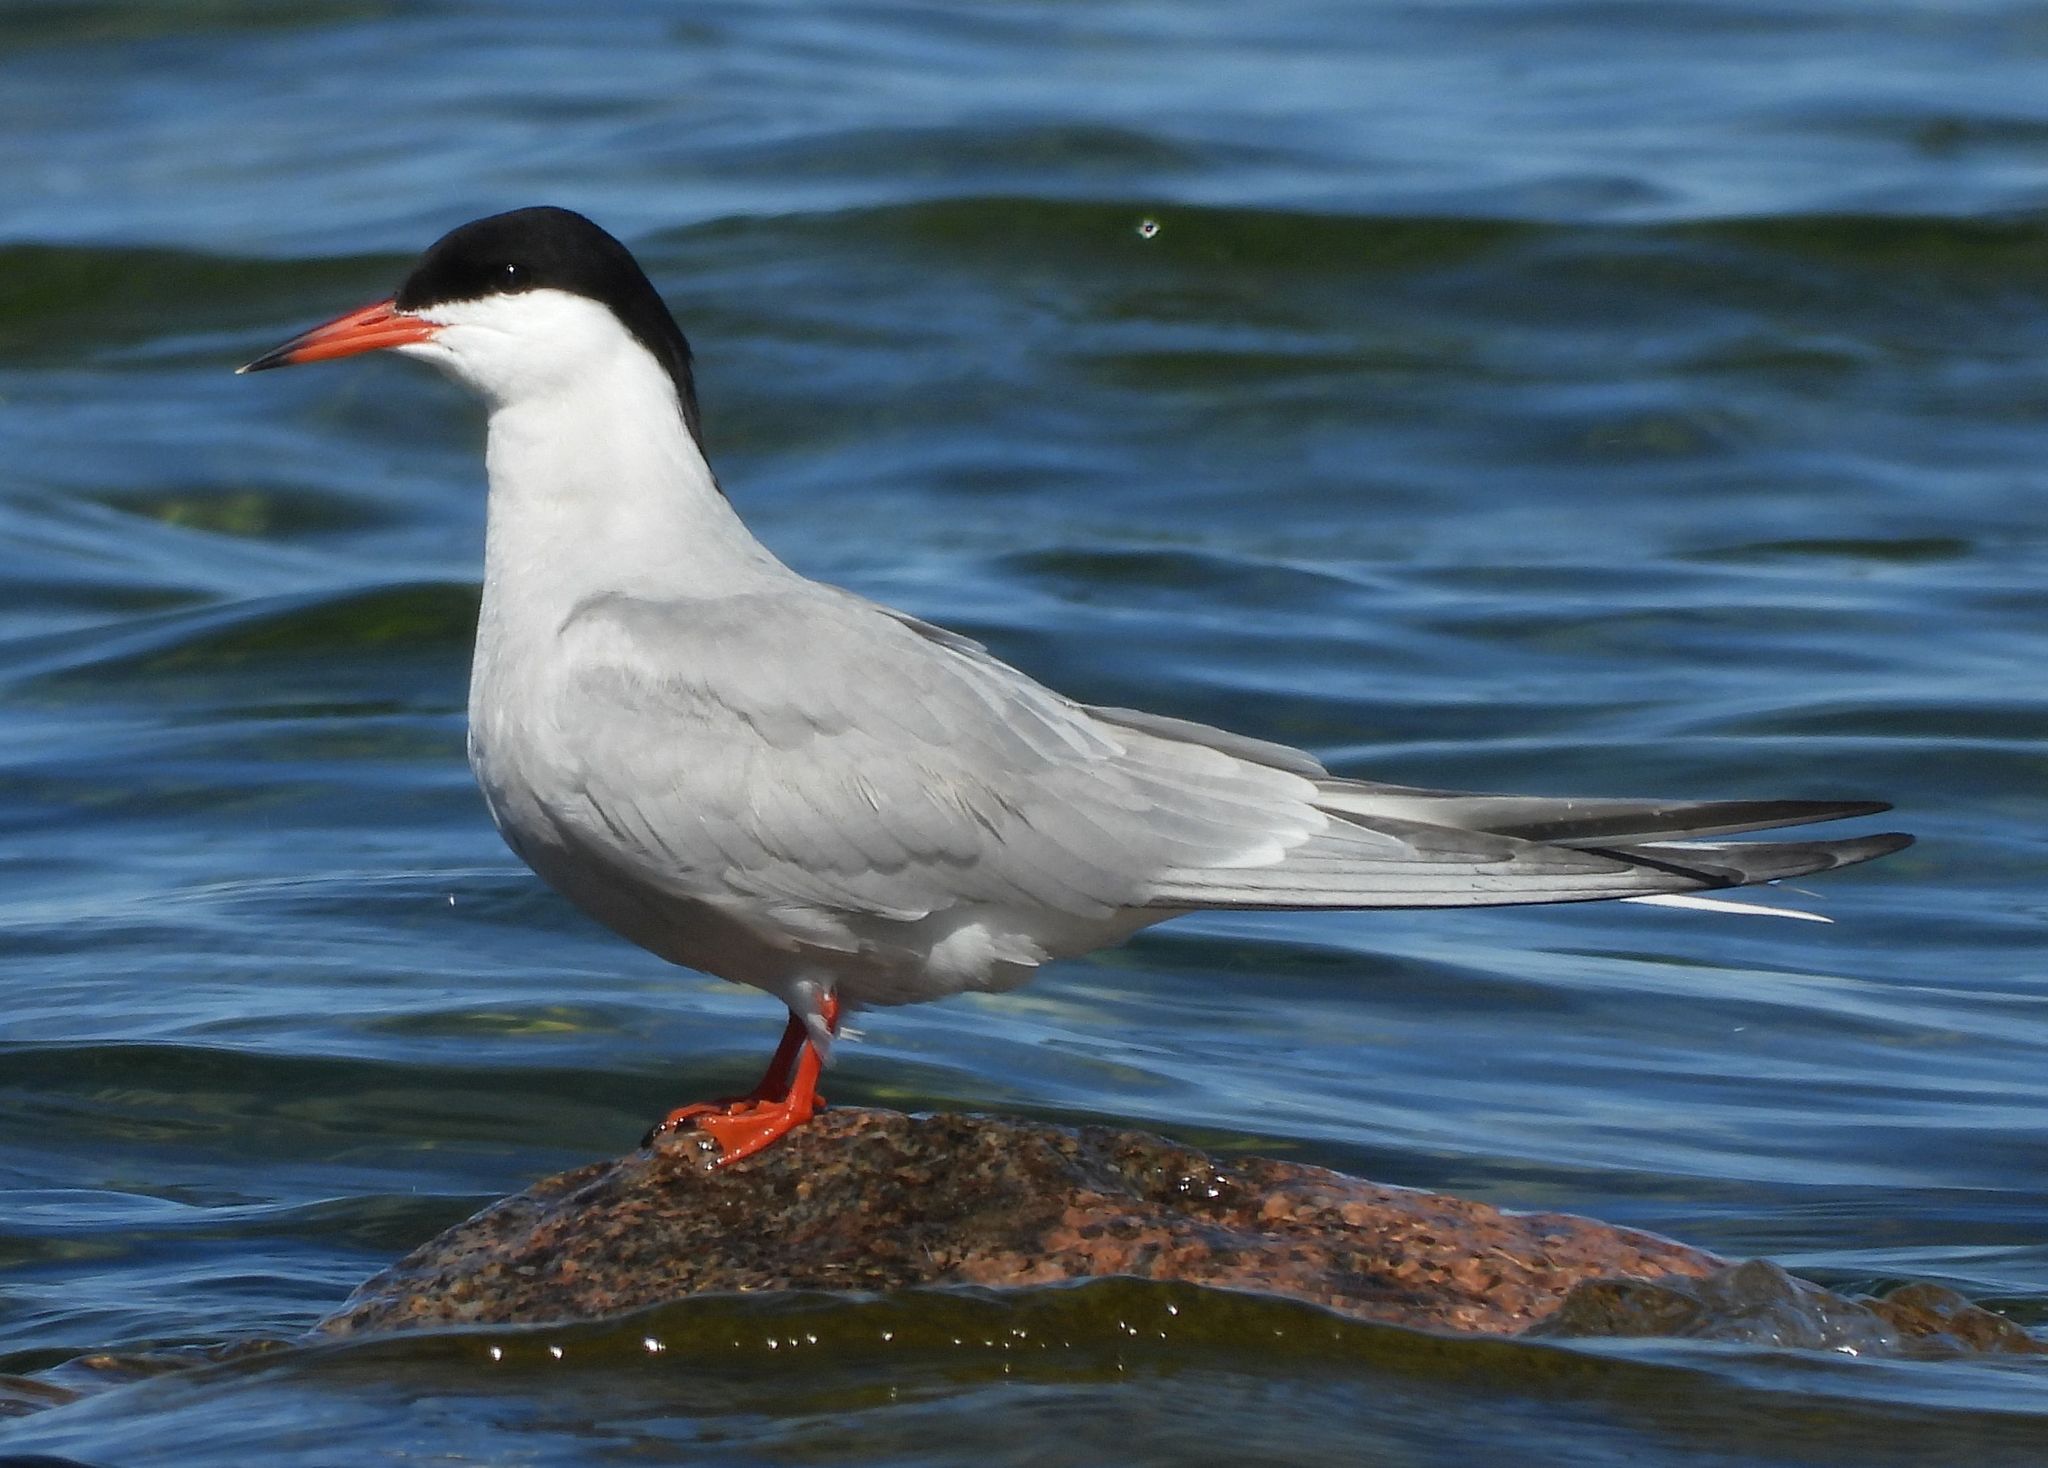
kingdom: Animalia
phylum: Chordata
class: Aves
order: Charadriiformes
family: Laridae
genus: Sterna
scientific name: Sterna hirundo
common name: Common tern
